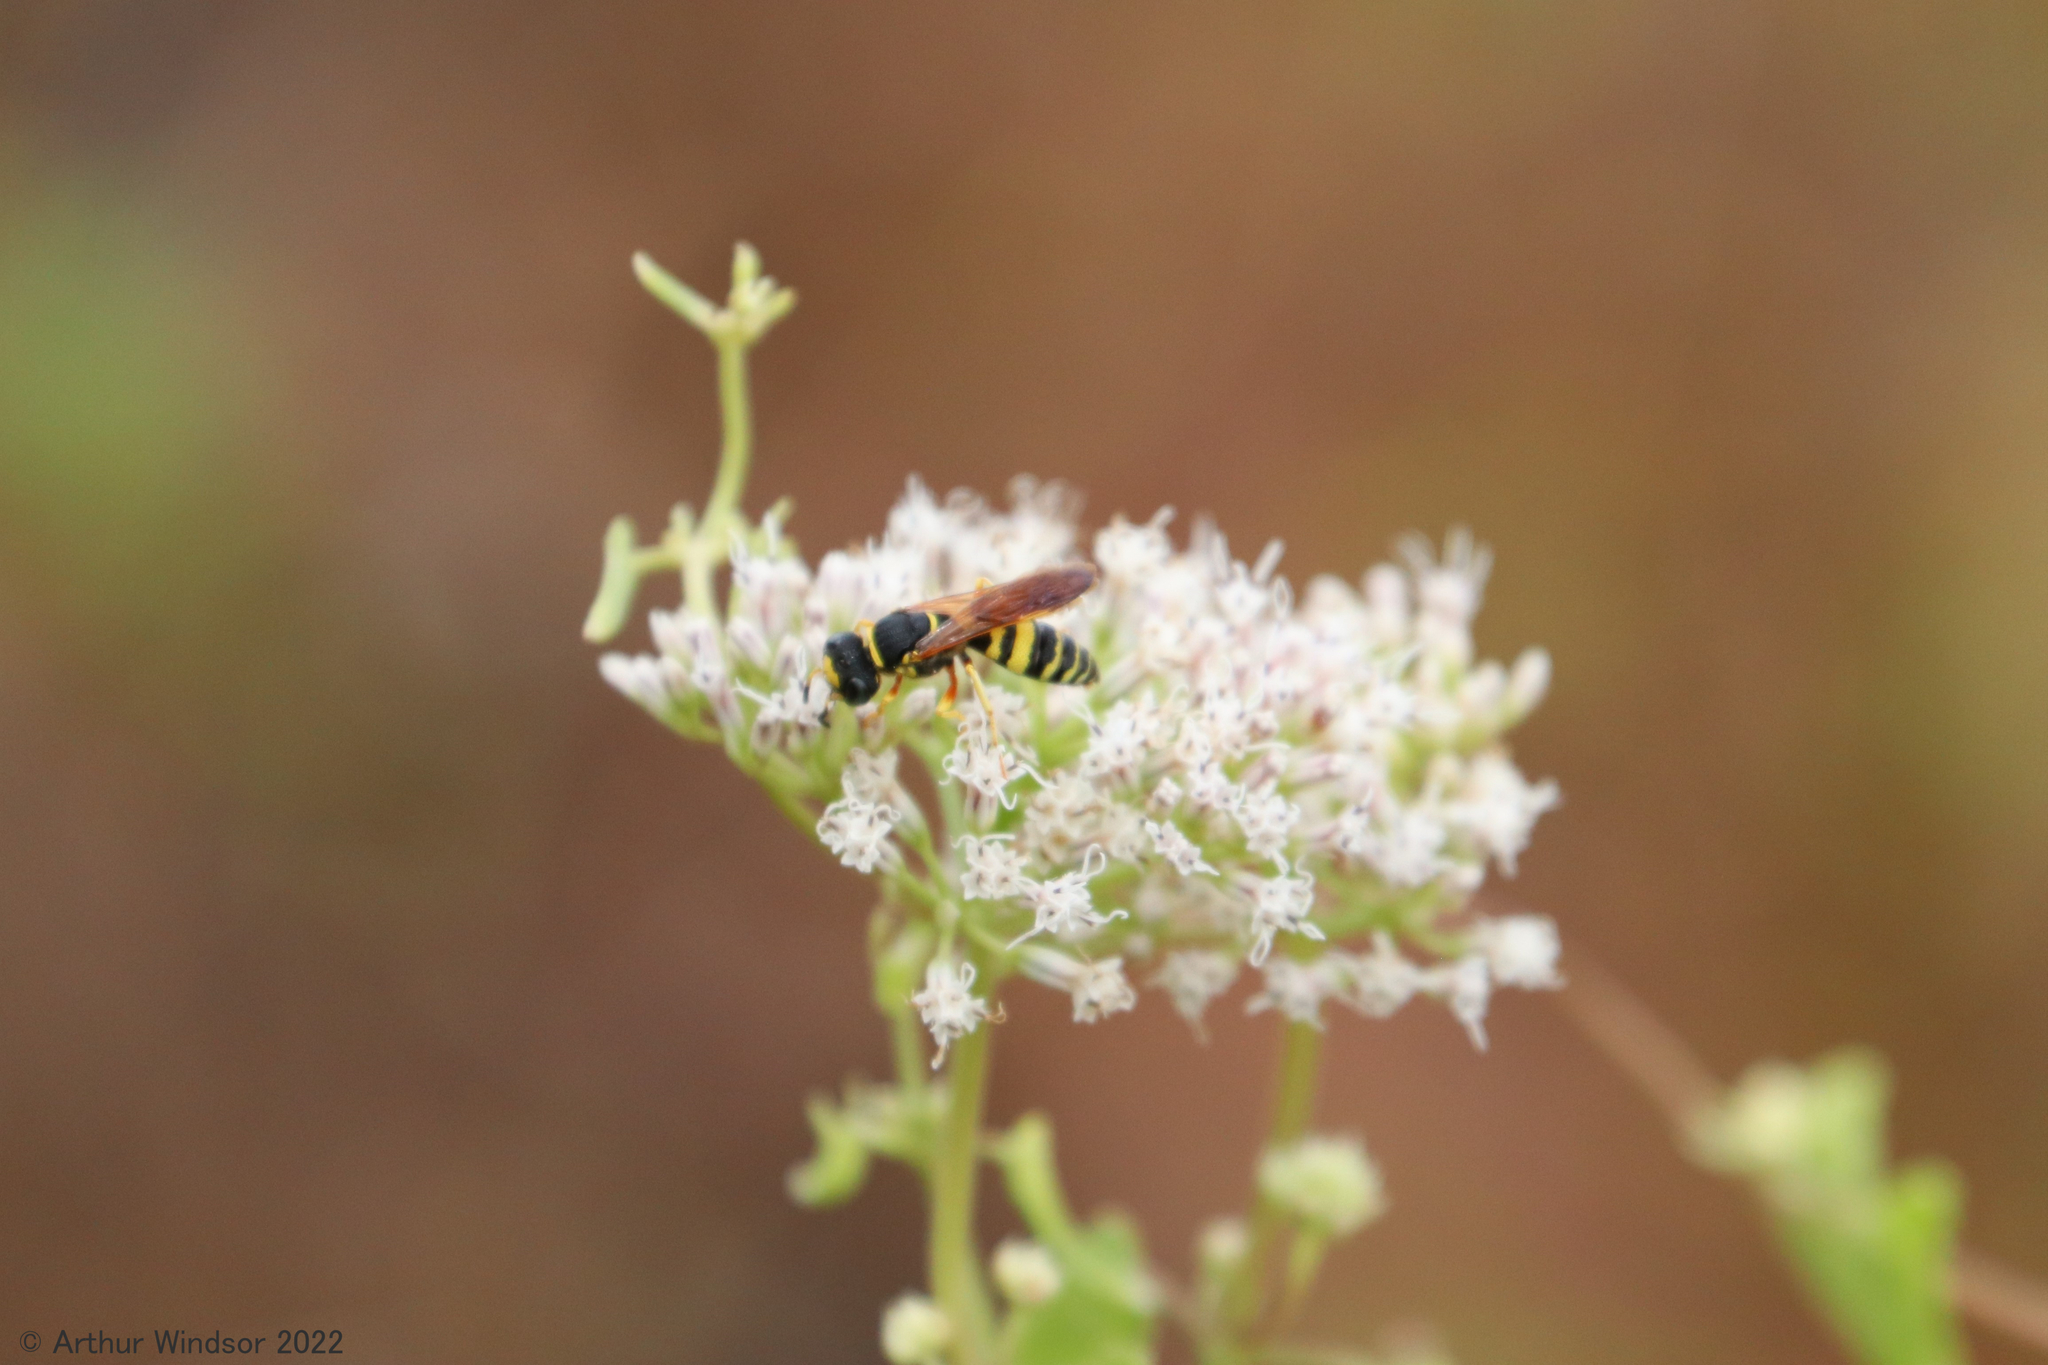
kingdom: Animalia
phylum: Arthropoda
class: Insecta
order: Hymenoptera
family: Crabronidae
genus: Philanthus
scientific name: Philanthus ventilabris
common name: Bee-killer wasp
